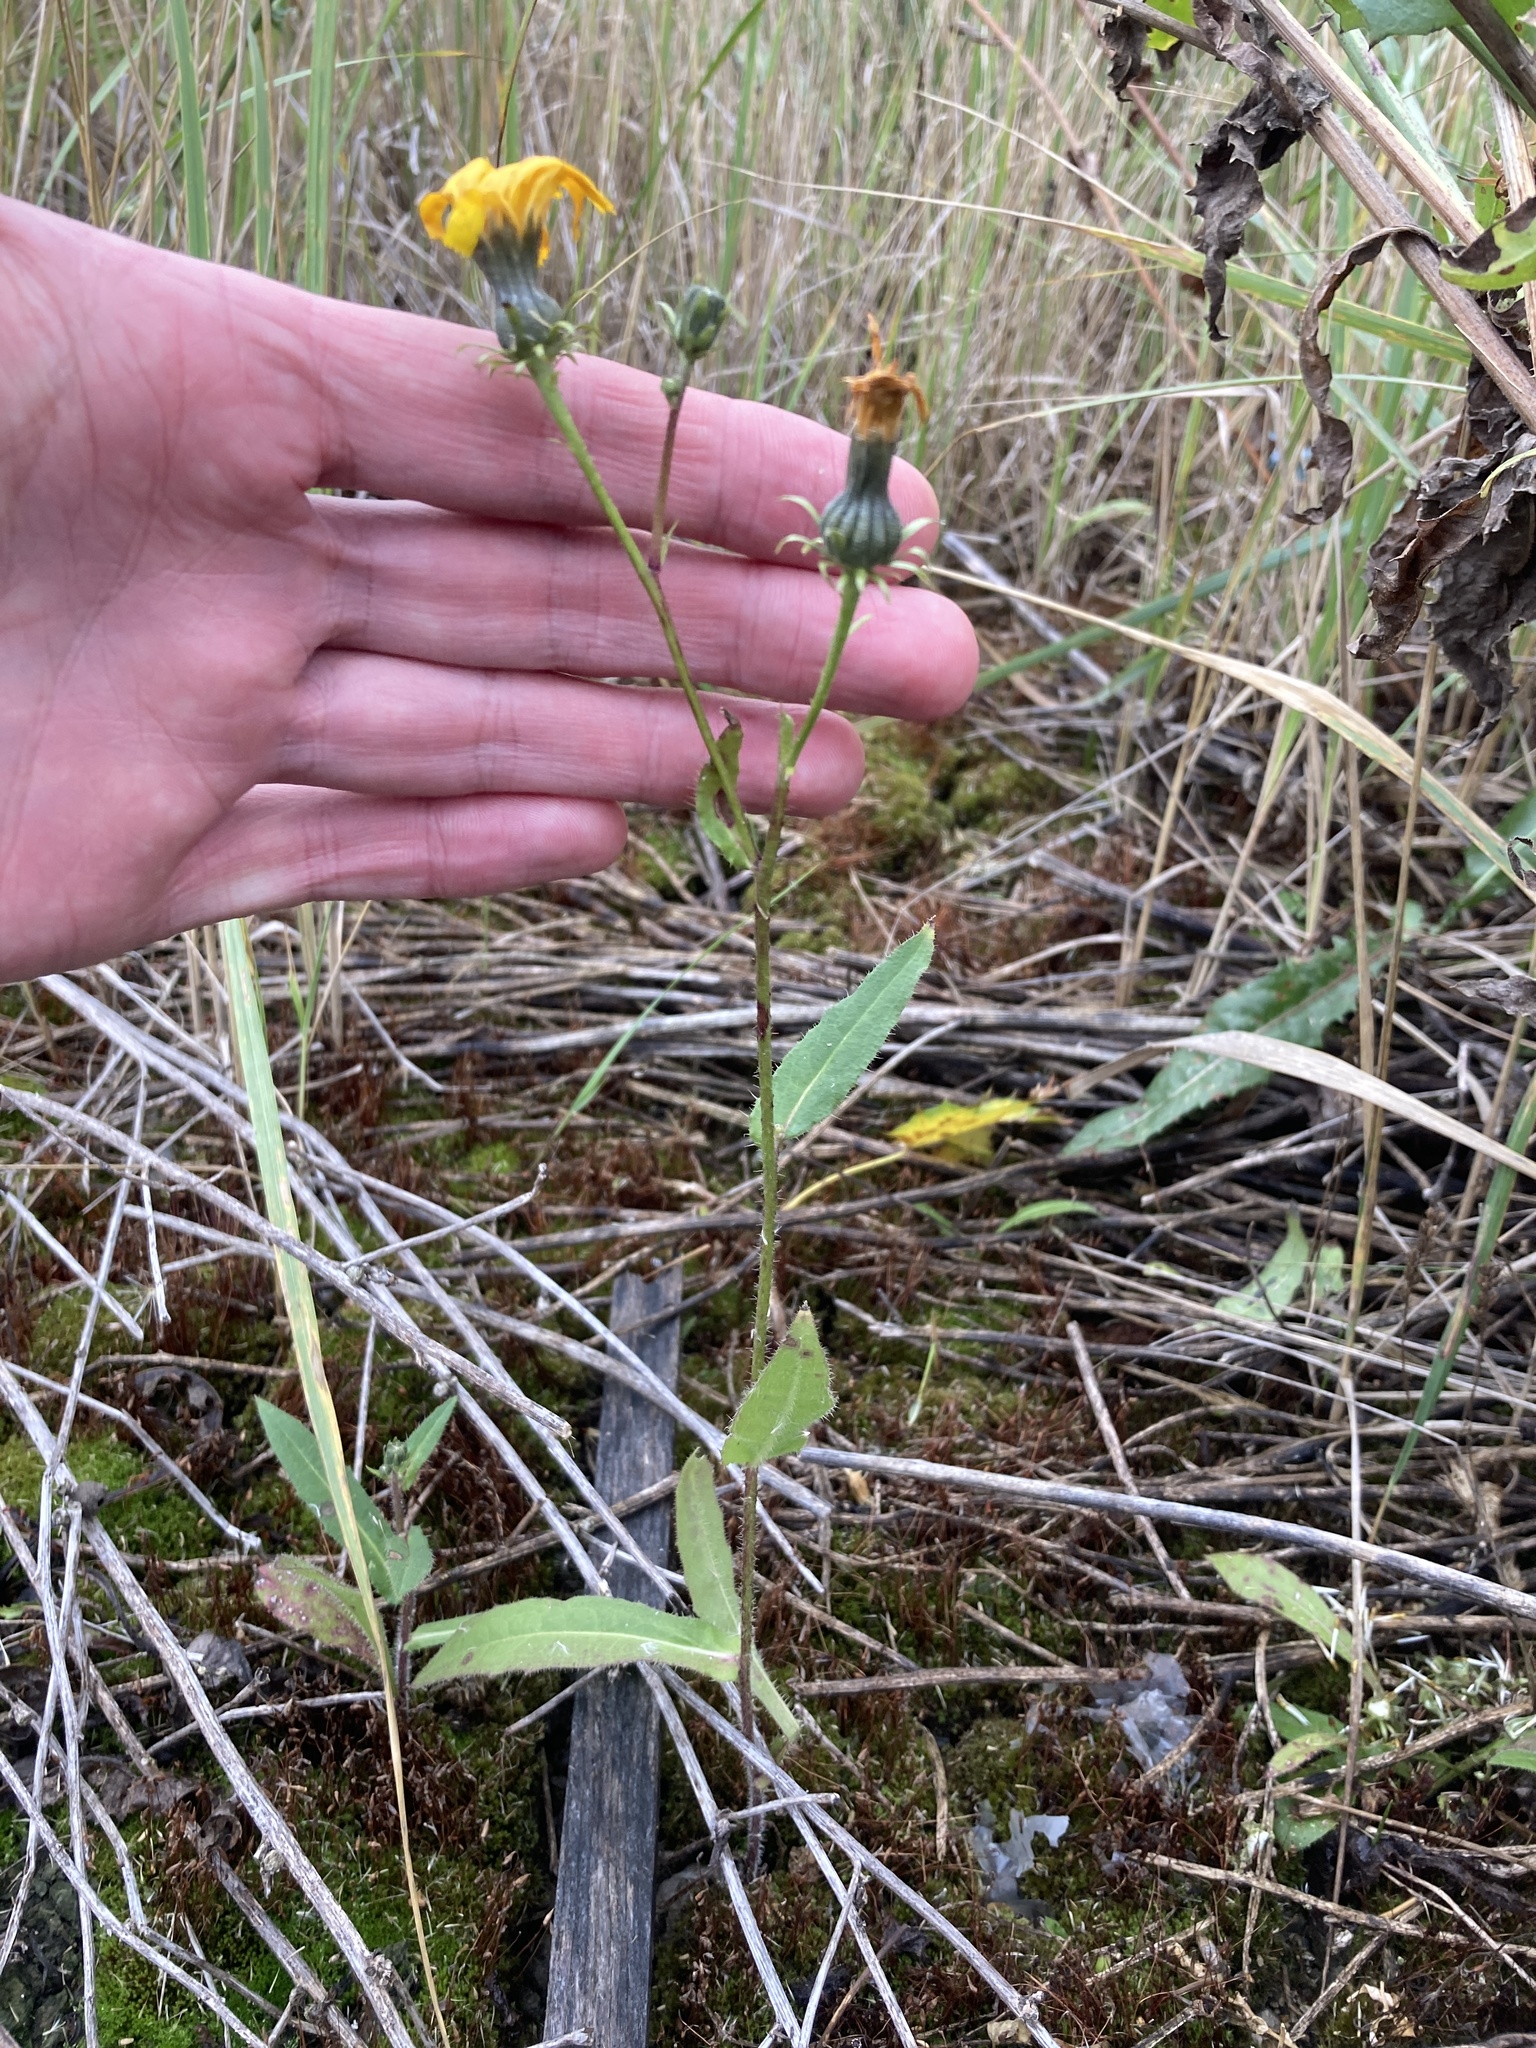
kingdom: Plantae
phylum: Tracheophyta
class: Magnoliopsida
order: Asterales
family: Asteraceae
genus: Picris
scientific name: Picris hieracioides
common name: Hawkweed oxtongue
